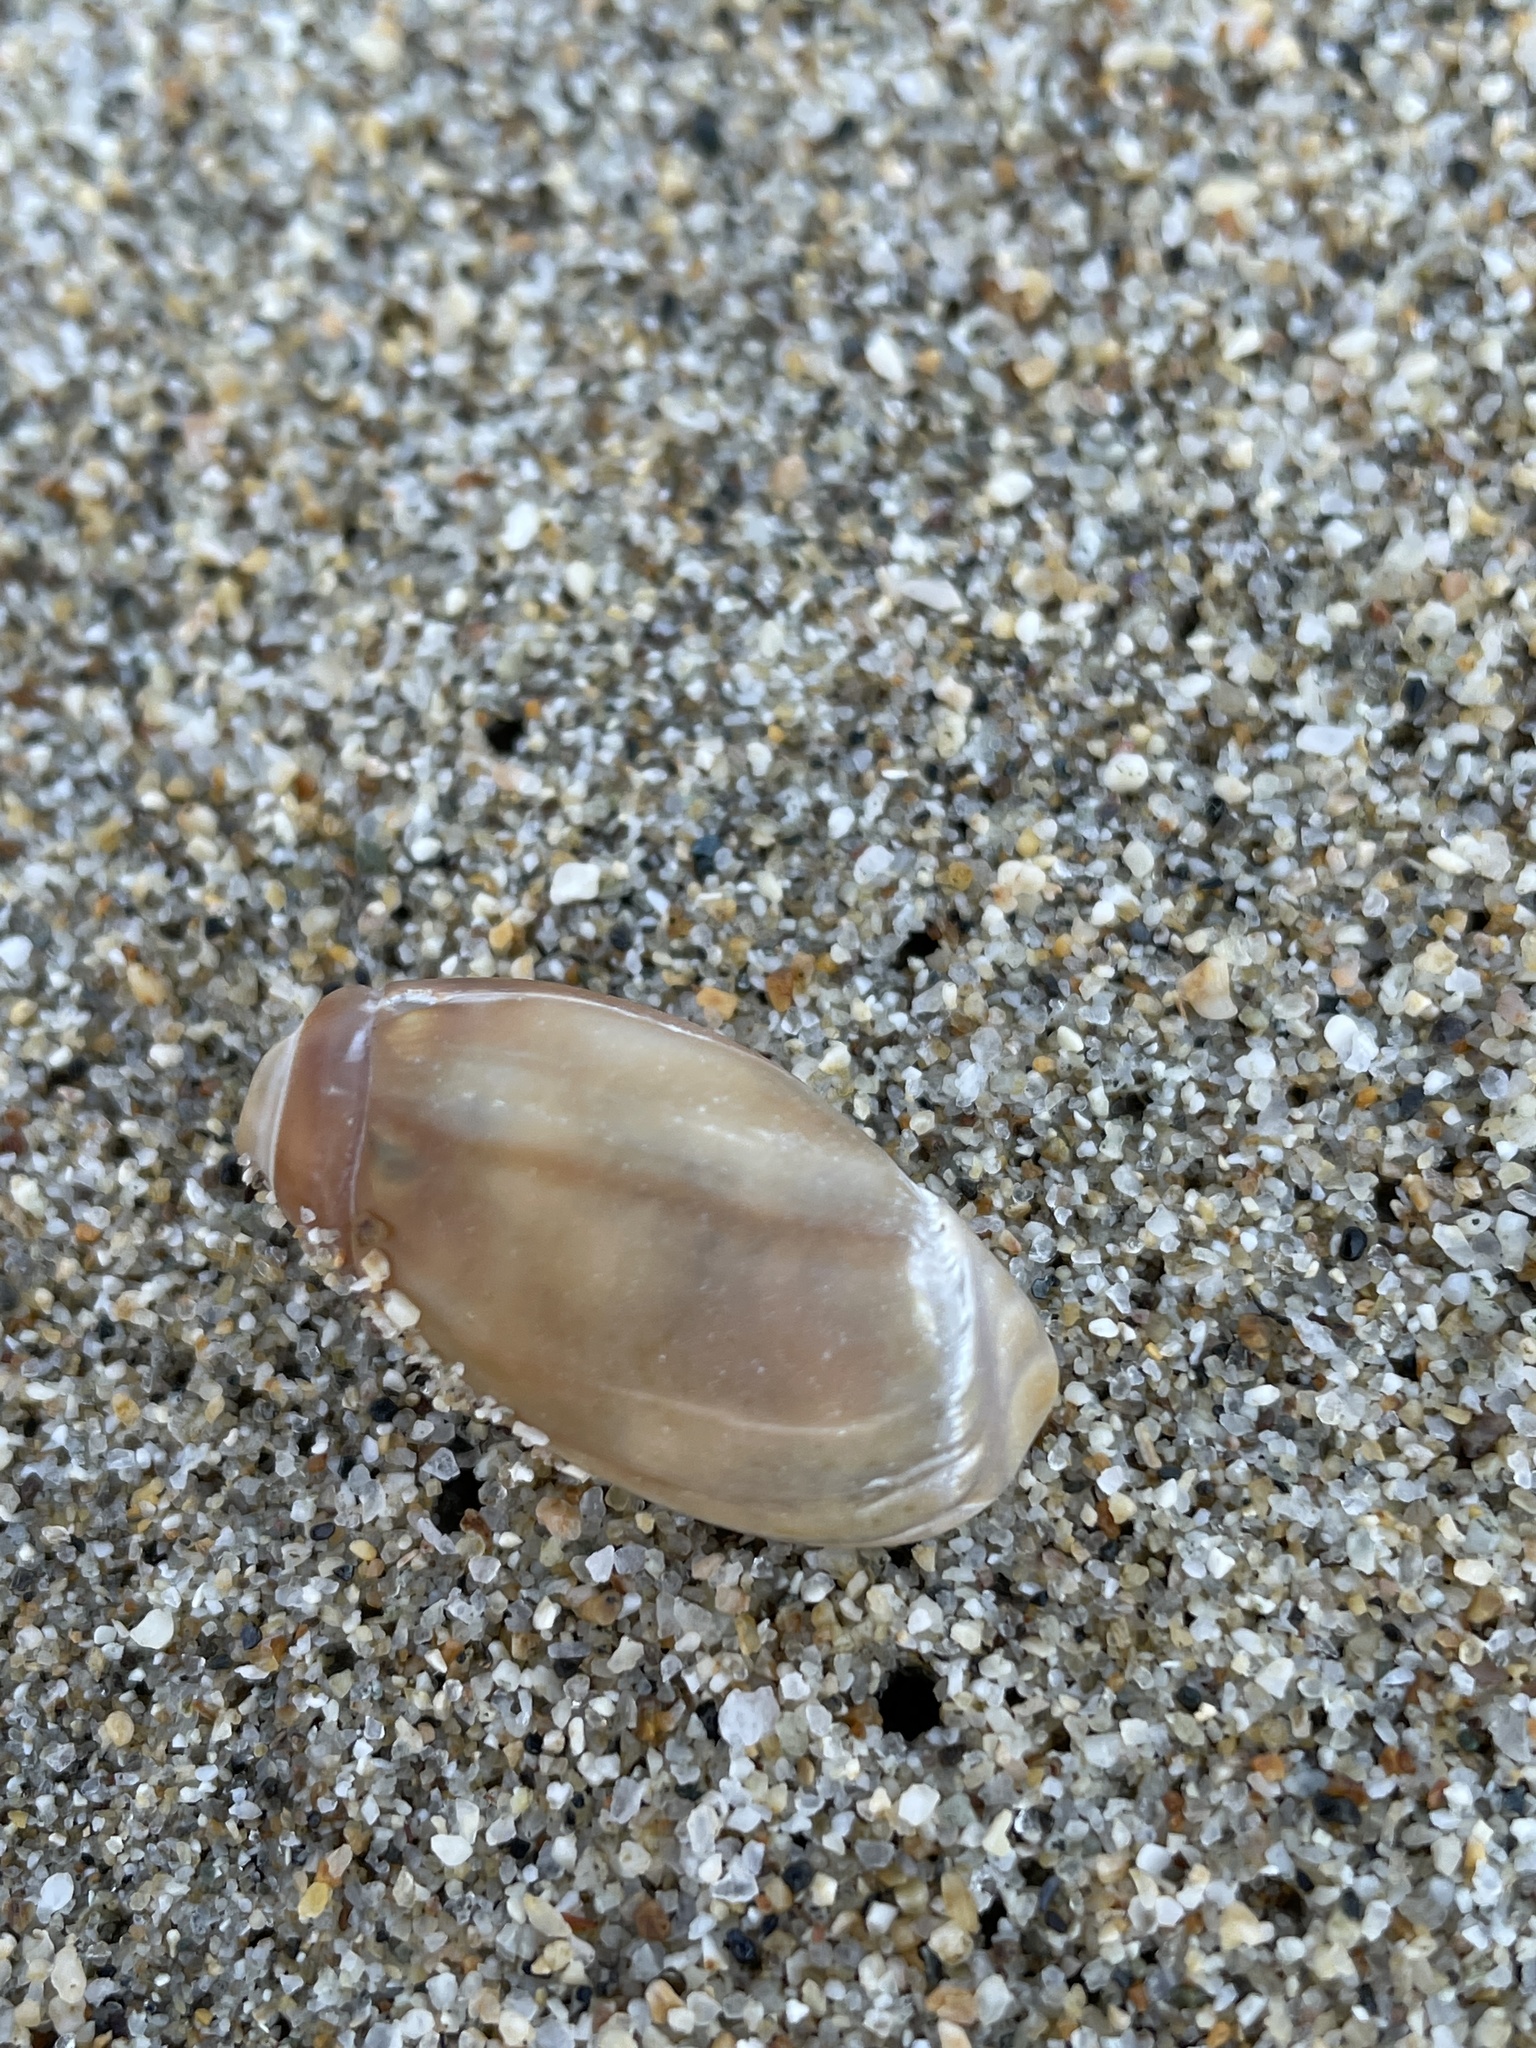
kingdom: Animalia
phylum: Mollusca
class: Gastropoda
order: Neogastropoda
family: Olividae
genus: Callianax
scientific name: Callianax biplicata
